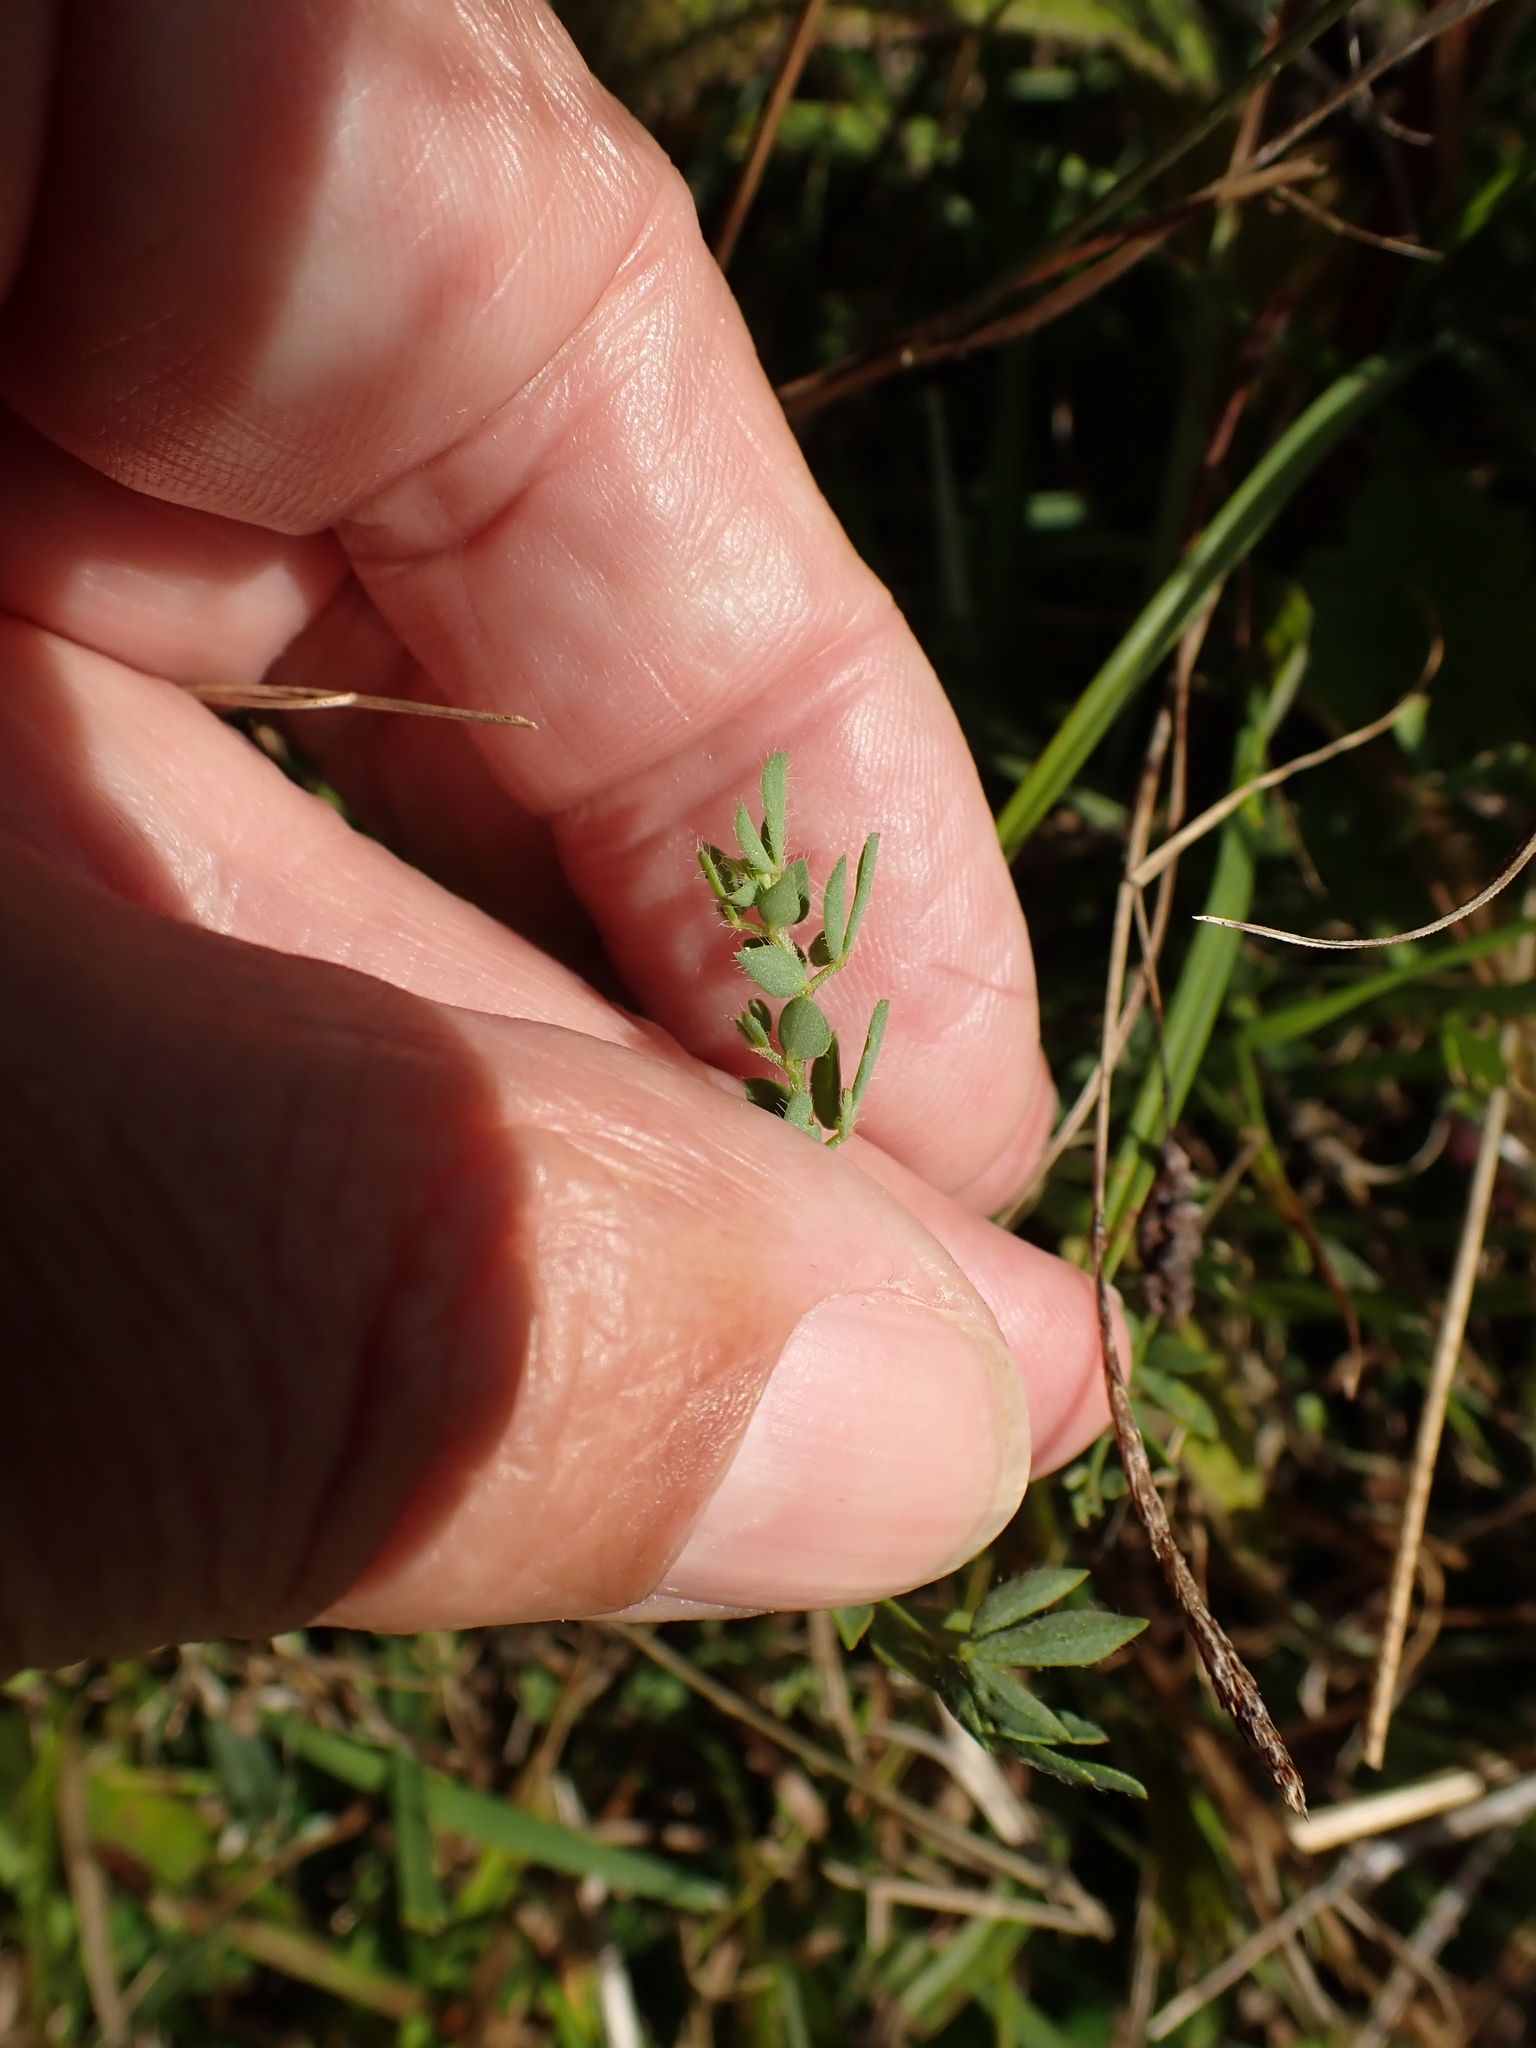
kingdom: Plantae
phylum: Tracheophyta
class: Magnoliopsida
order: Fabales
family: Fabaceae
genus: Lotus
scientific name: Lotus corniculatus
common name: Common bird's-foot-trefoil
